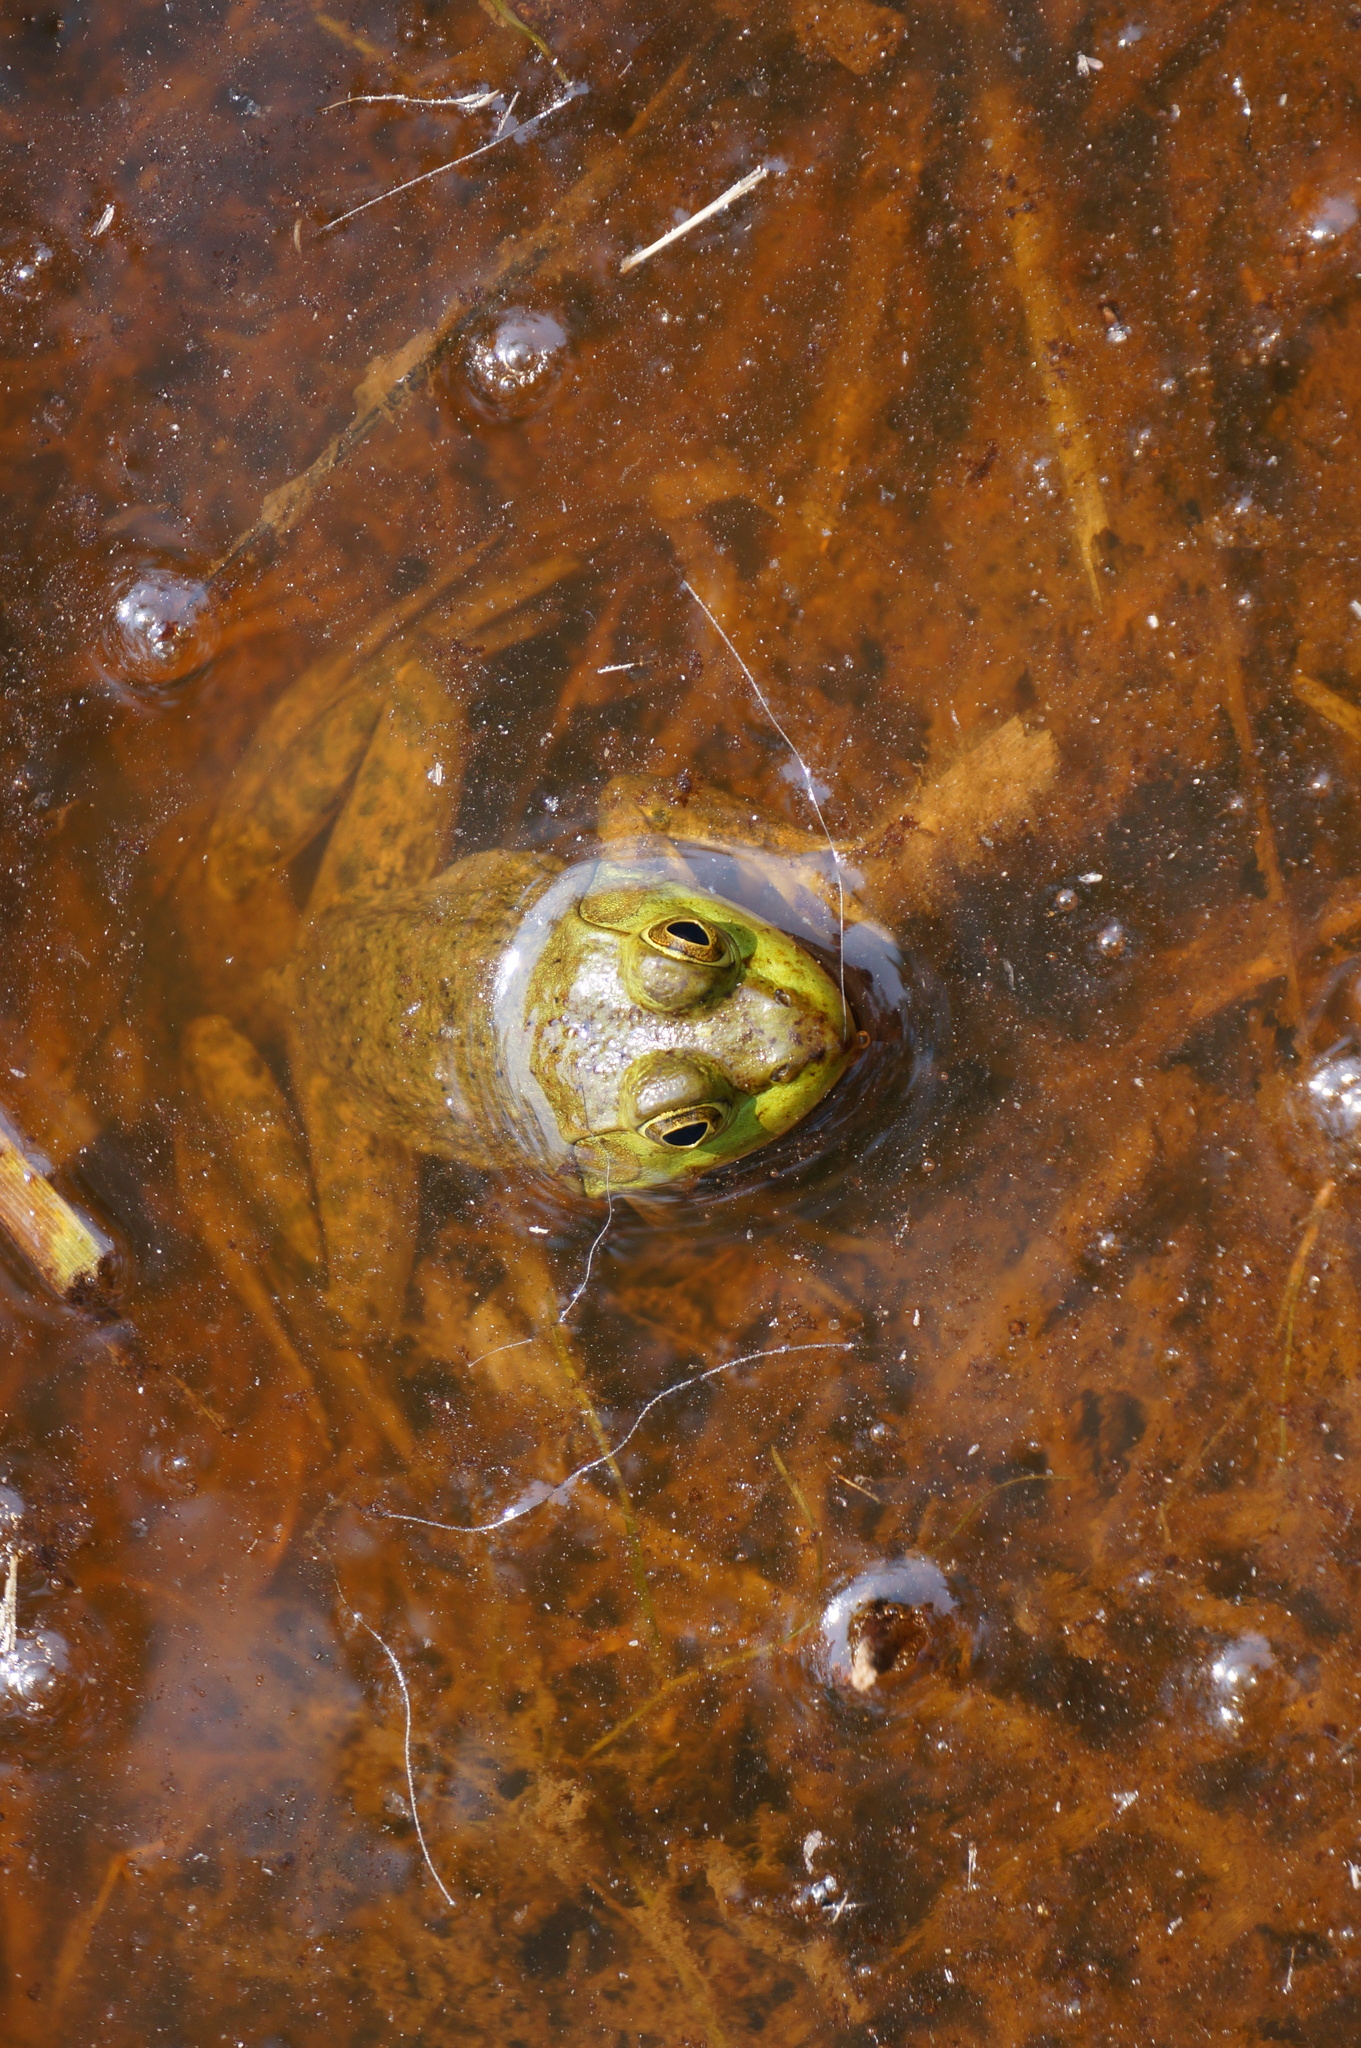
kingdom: Animalia
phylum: Chordata
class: Amphibia
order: Anura
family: Ranidae
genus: Lithobates
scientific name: Lithobates catesbeianus
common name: American bullfrog
